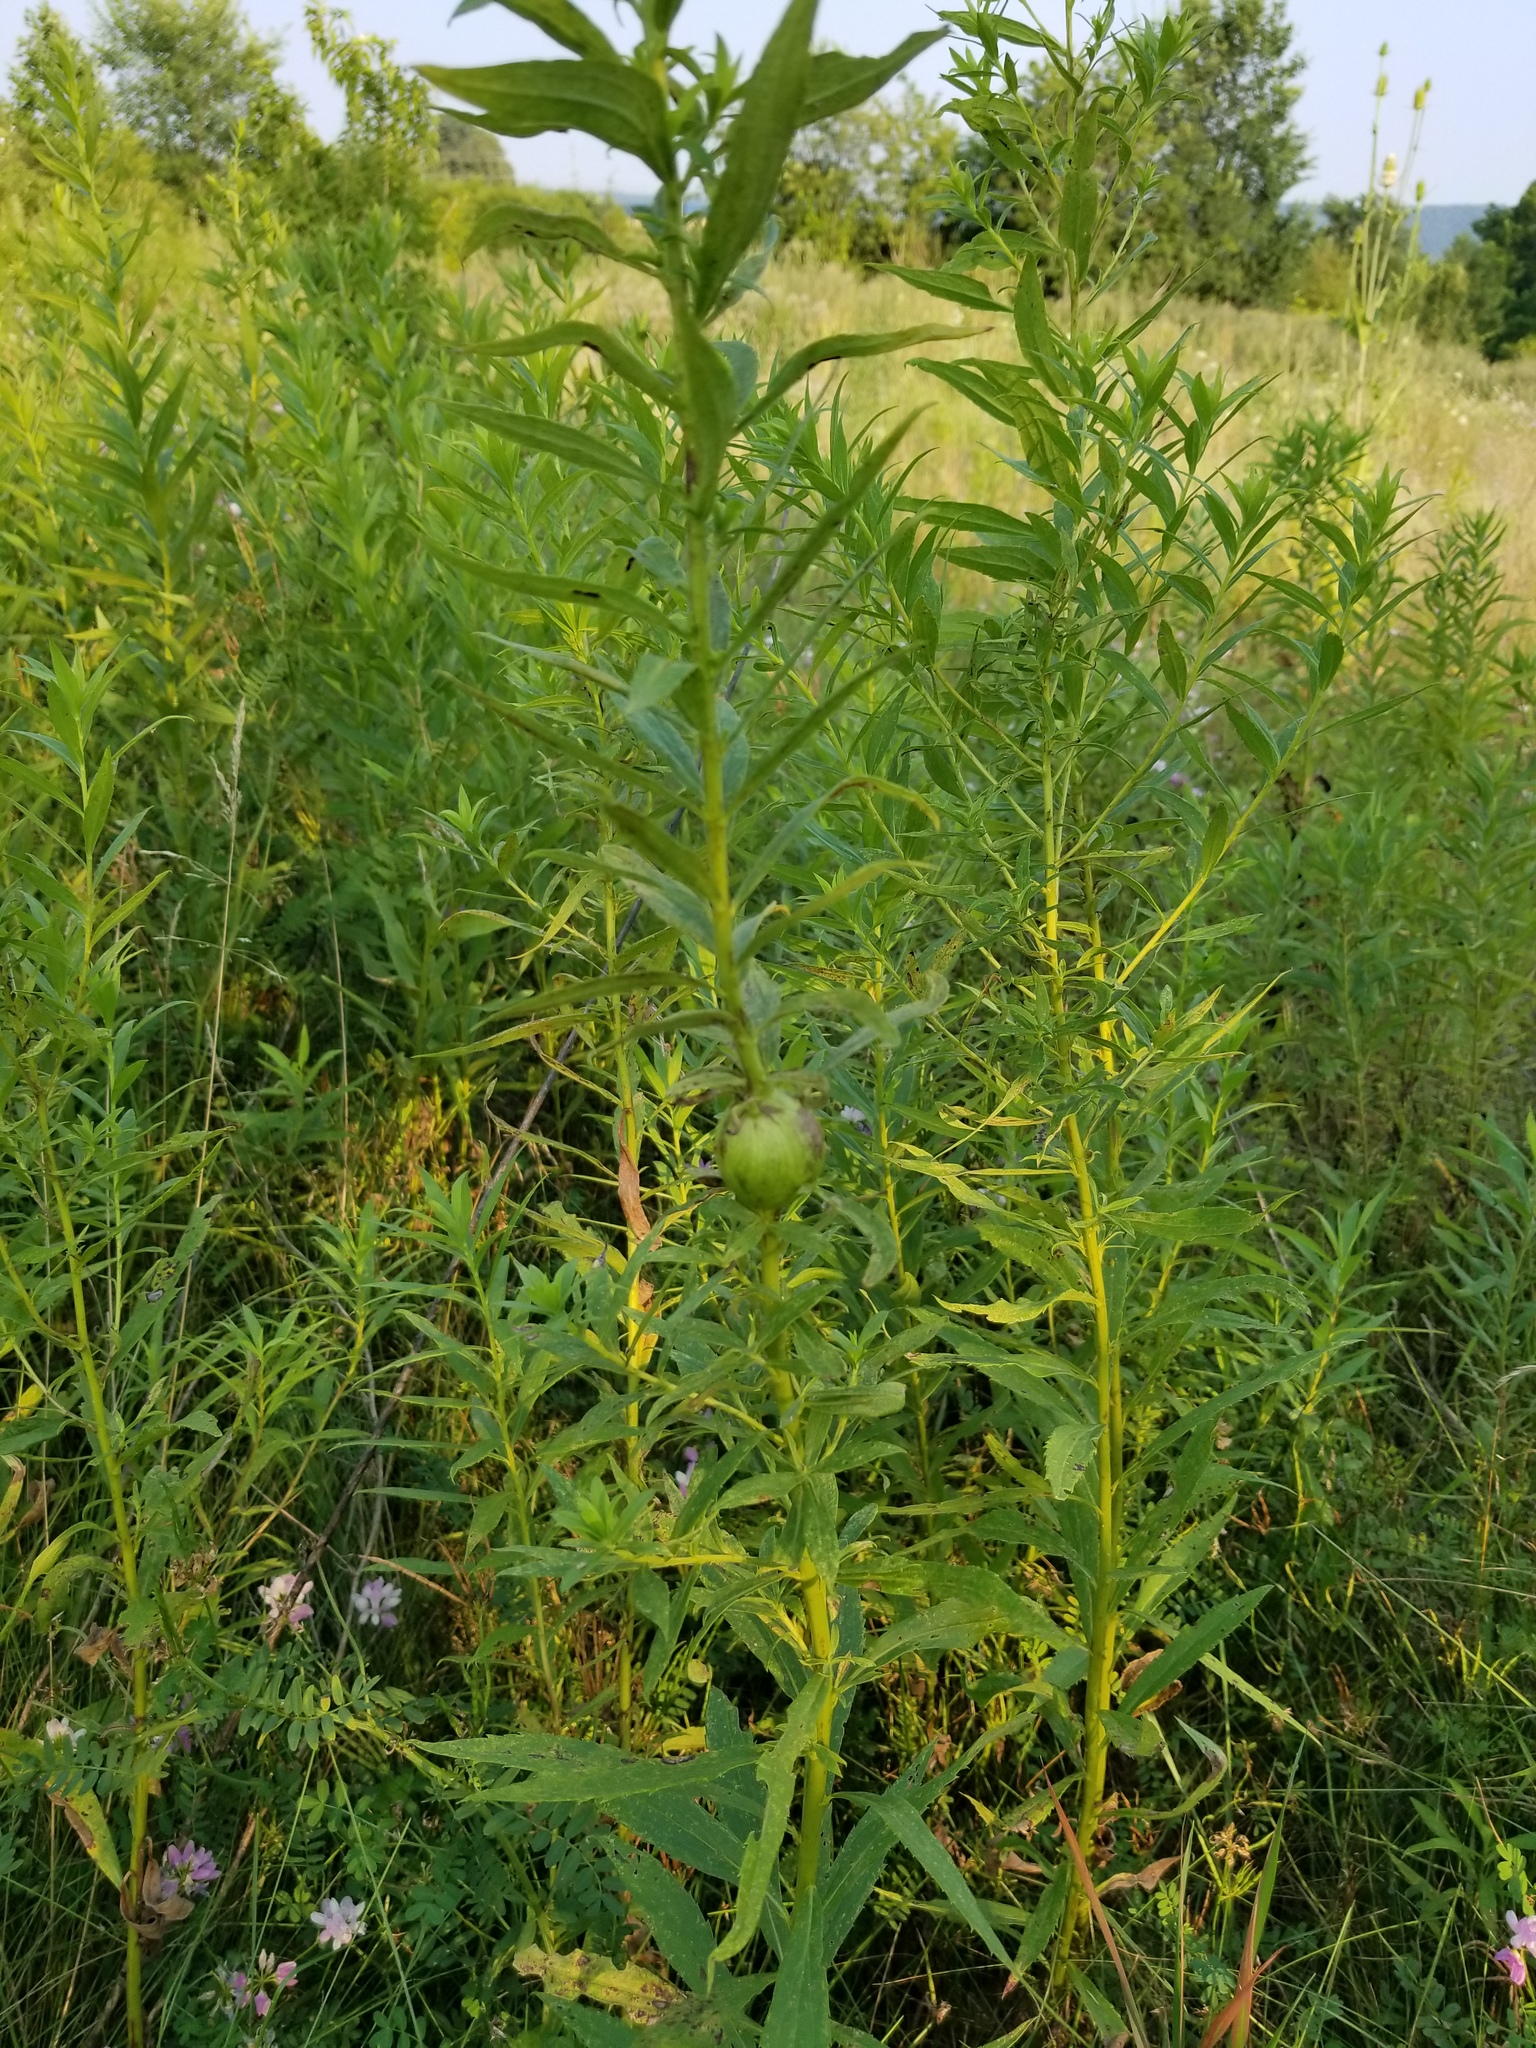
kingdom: Animalia
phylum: Arthropoda
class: Insecta
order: Diptera
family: Tephritidae
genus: Eurosta
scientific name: Eurosta solidaginis
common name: Goldenrod gall fly
